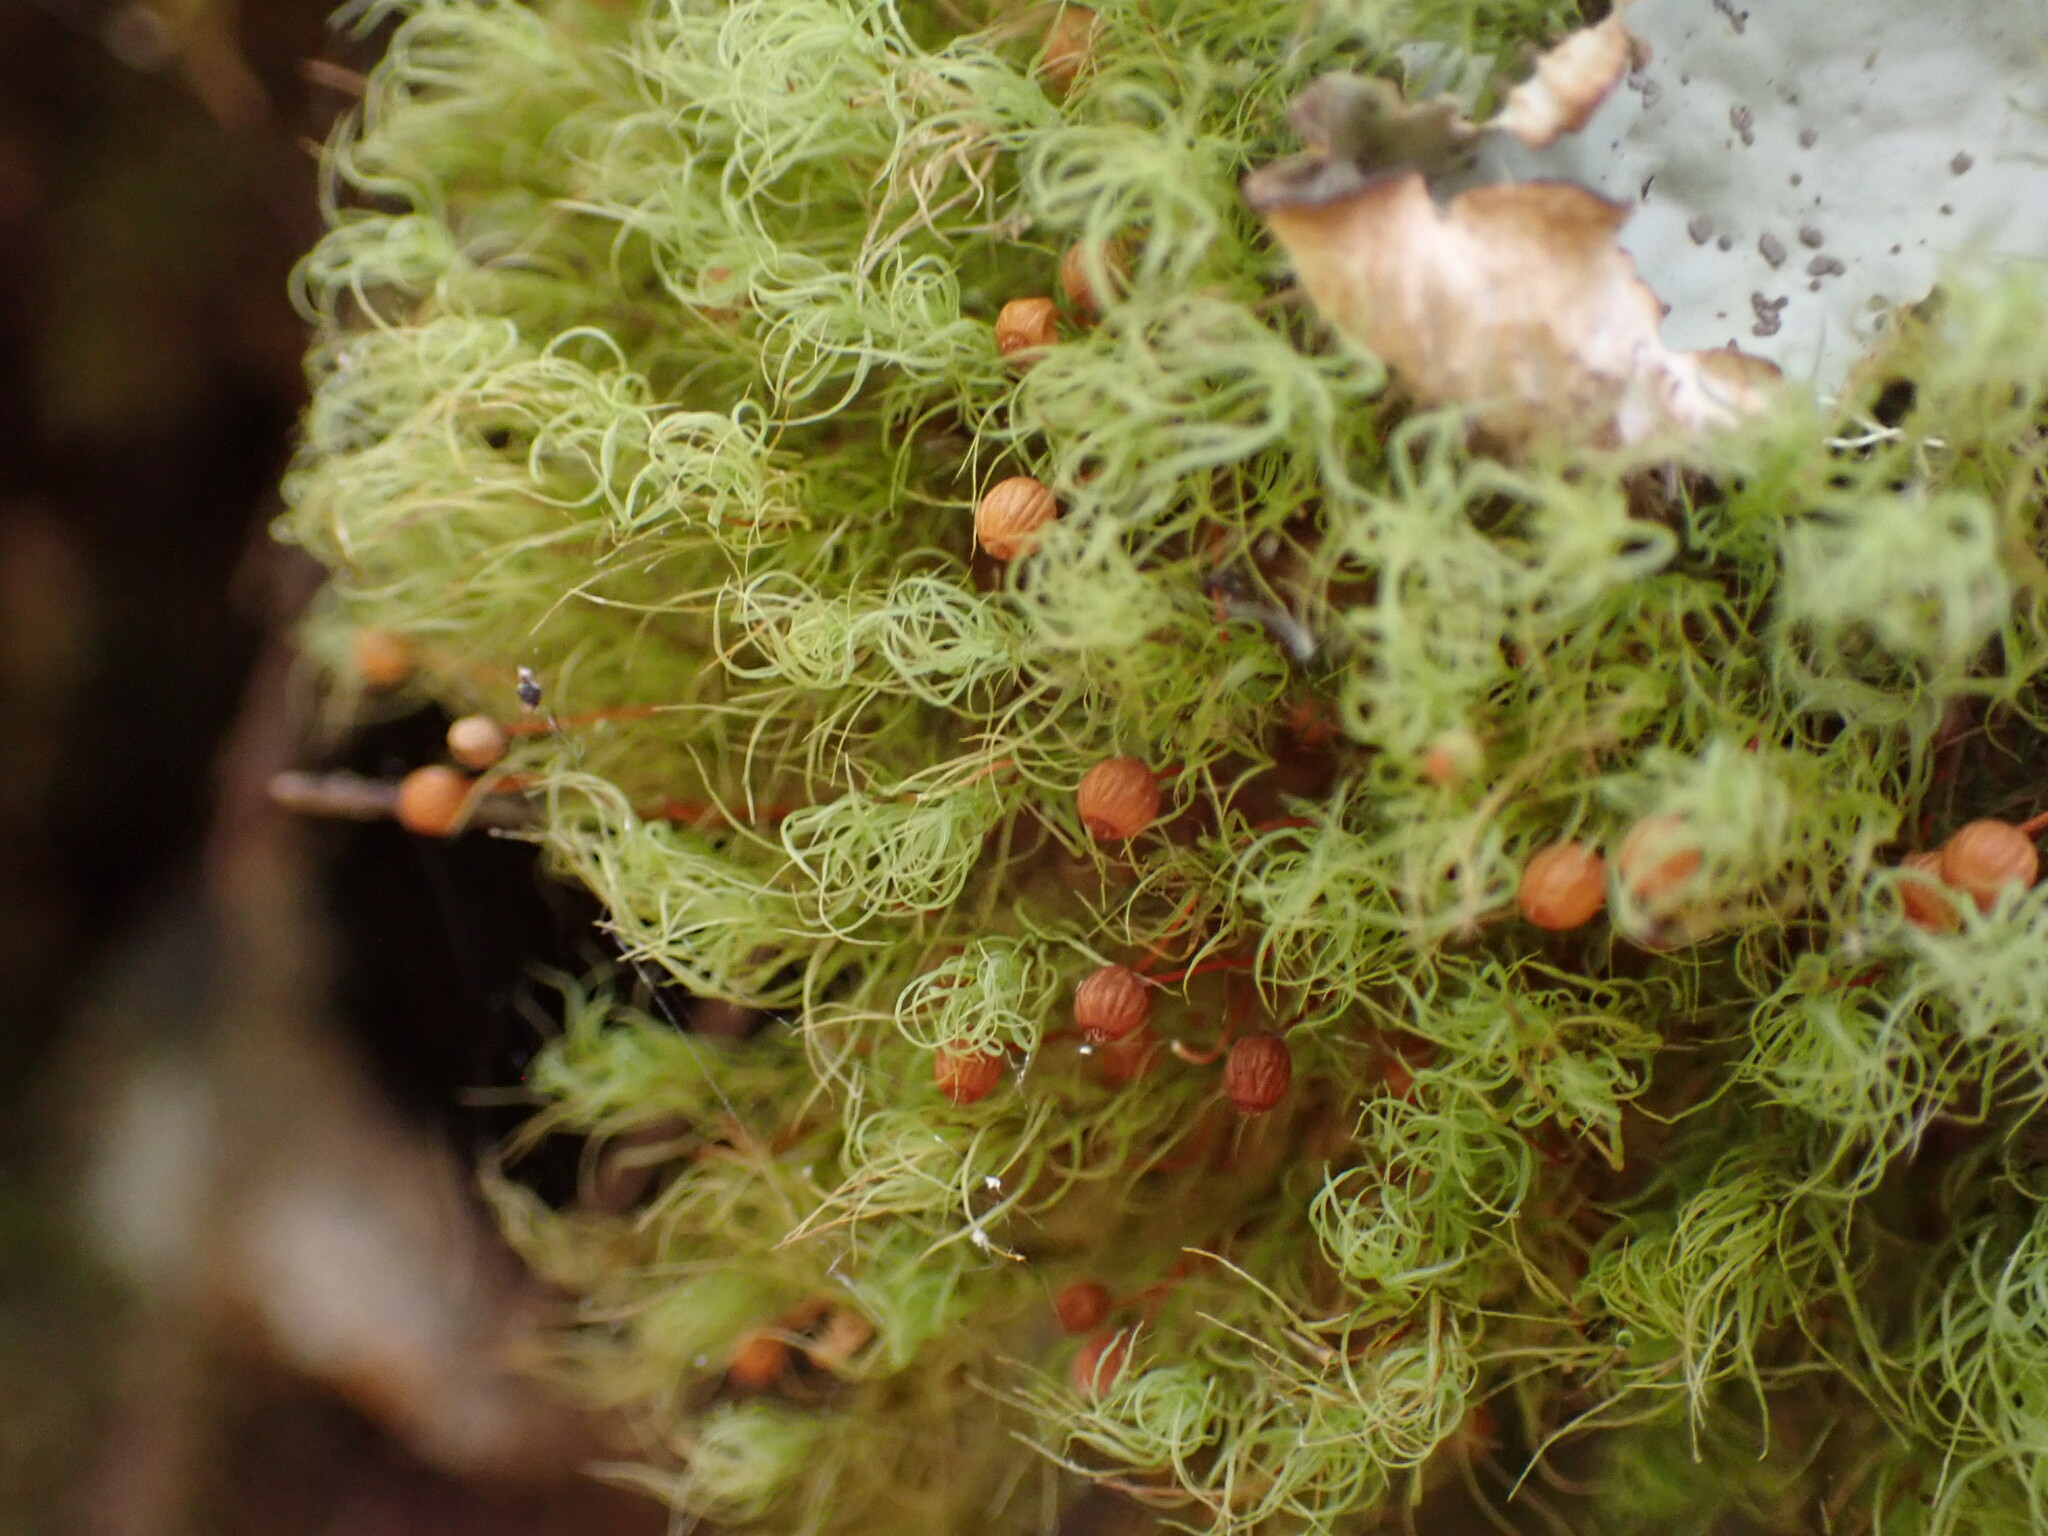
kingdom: Plantae
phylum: Bryophyta
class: Bryopsida
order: Bartramiales
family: Bartramiaceae
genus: Bartramia
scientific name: Bartramia ithyphylla
